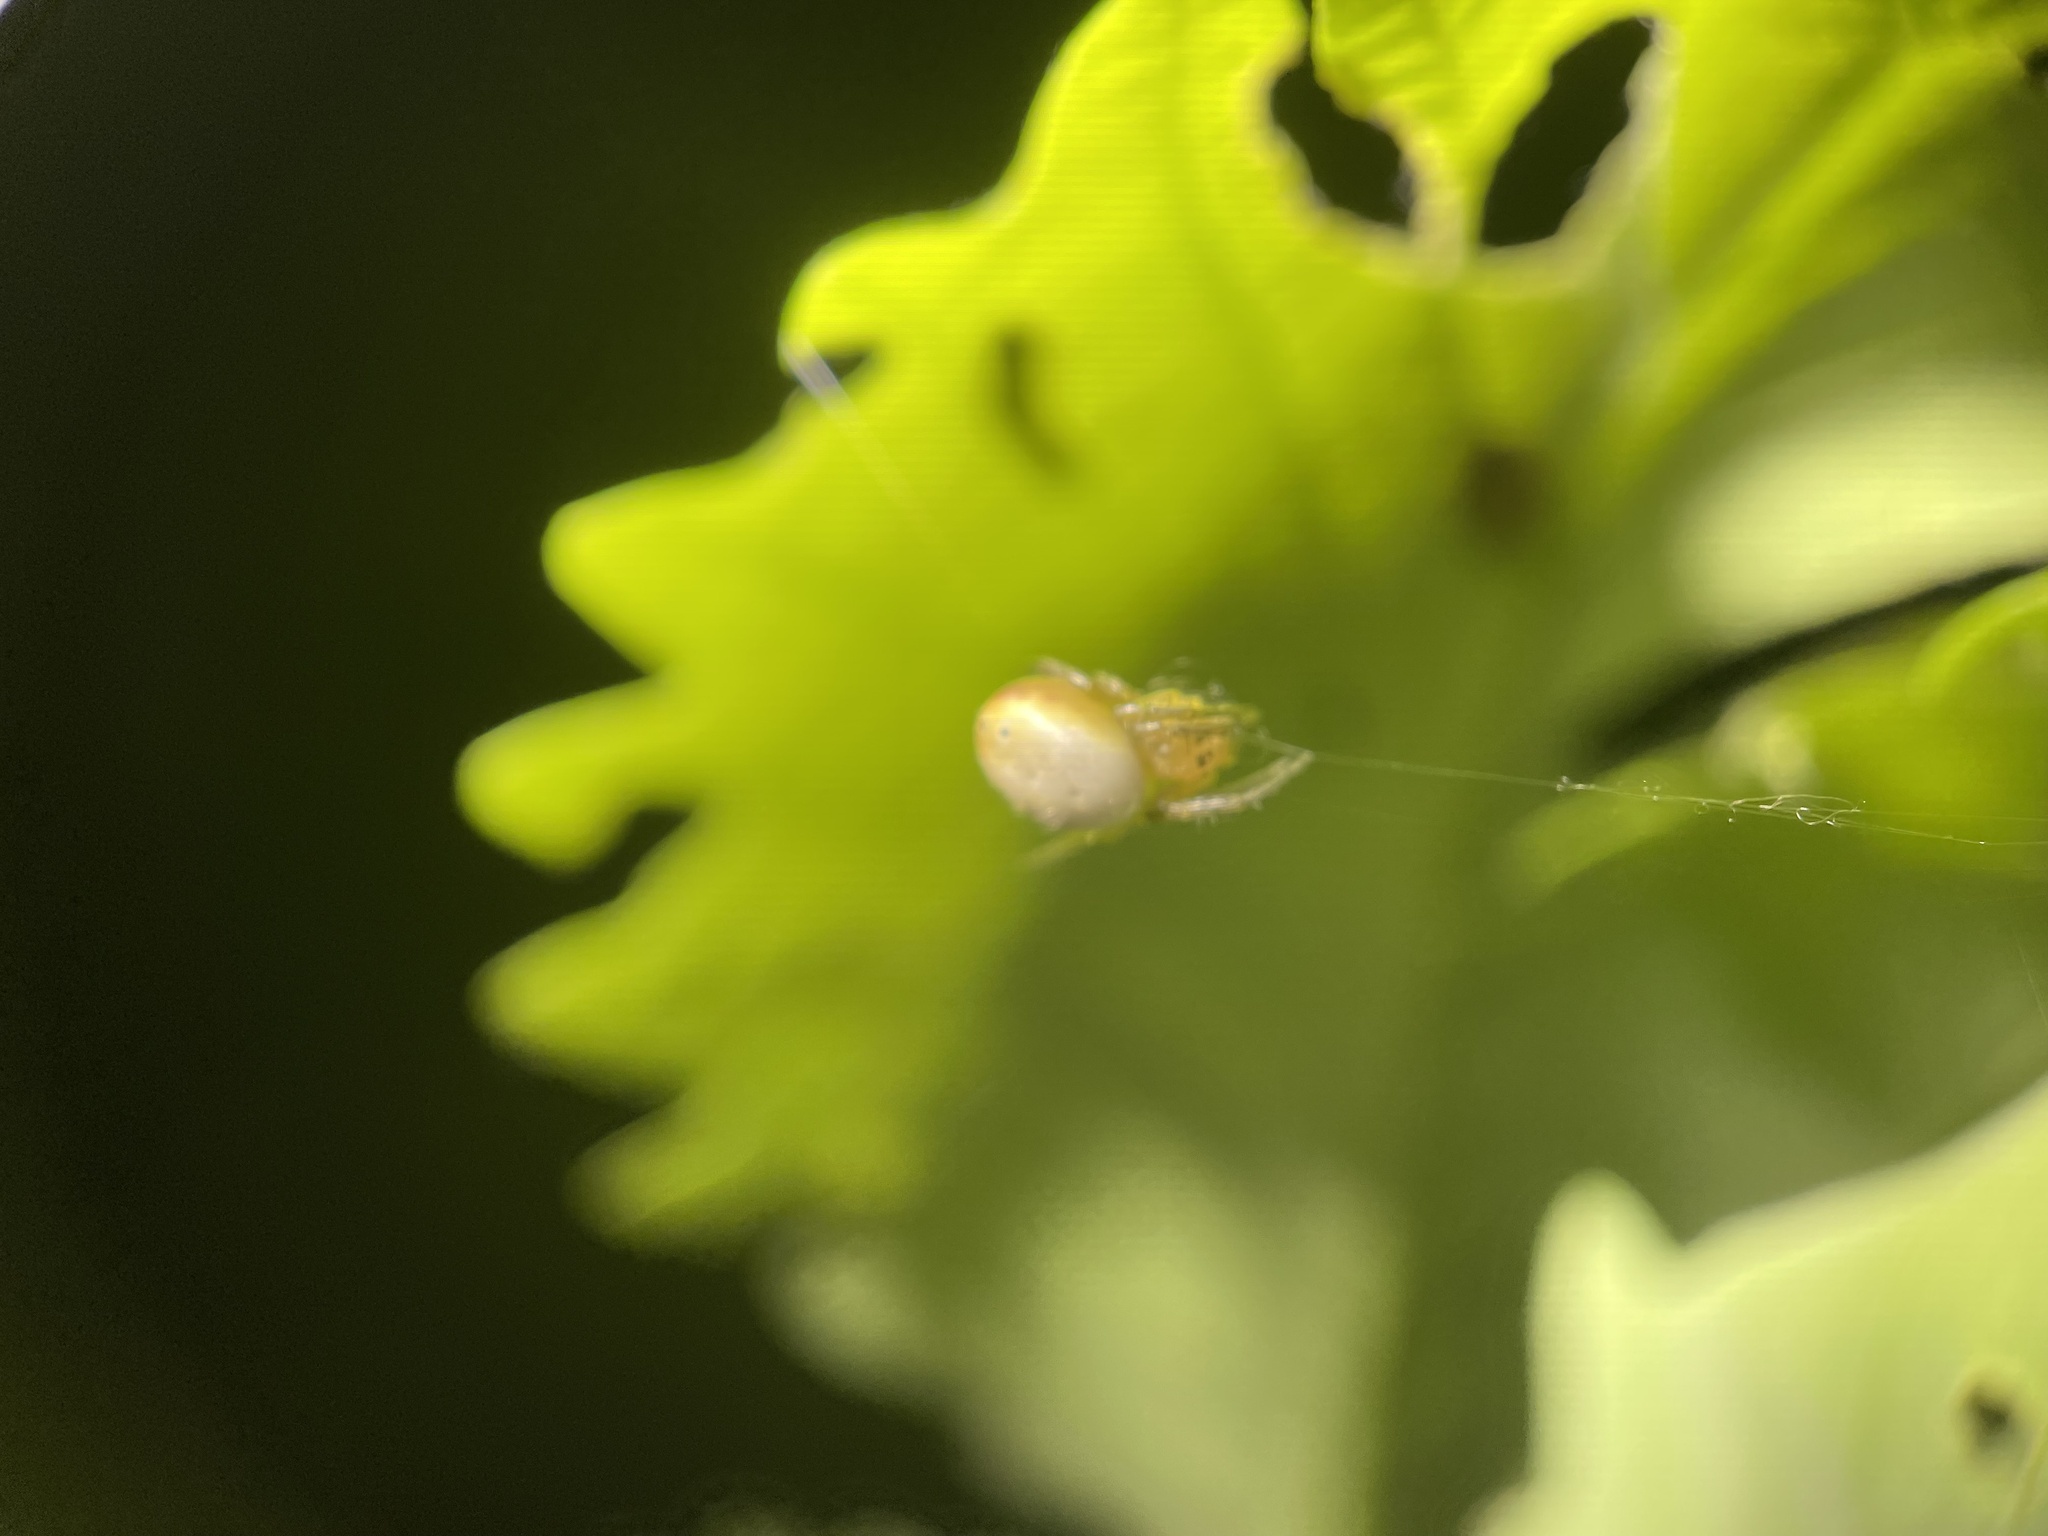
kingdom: Animalia
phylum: Arthropoda
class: Arachnida
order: Araneae
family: Araneidae
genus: Araniella
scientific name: Araniella displicata
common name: Sixspotted orb weaver
